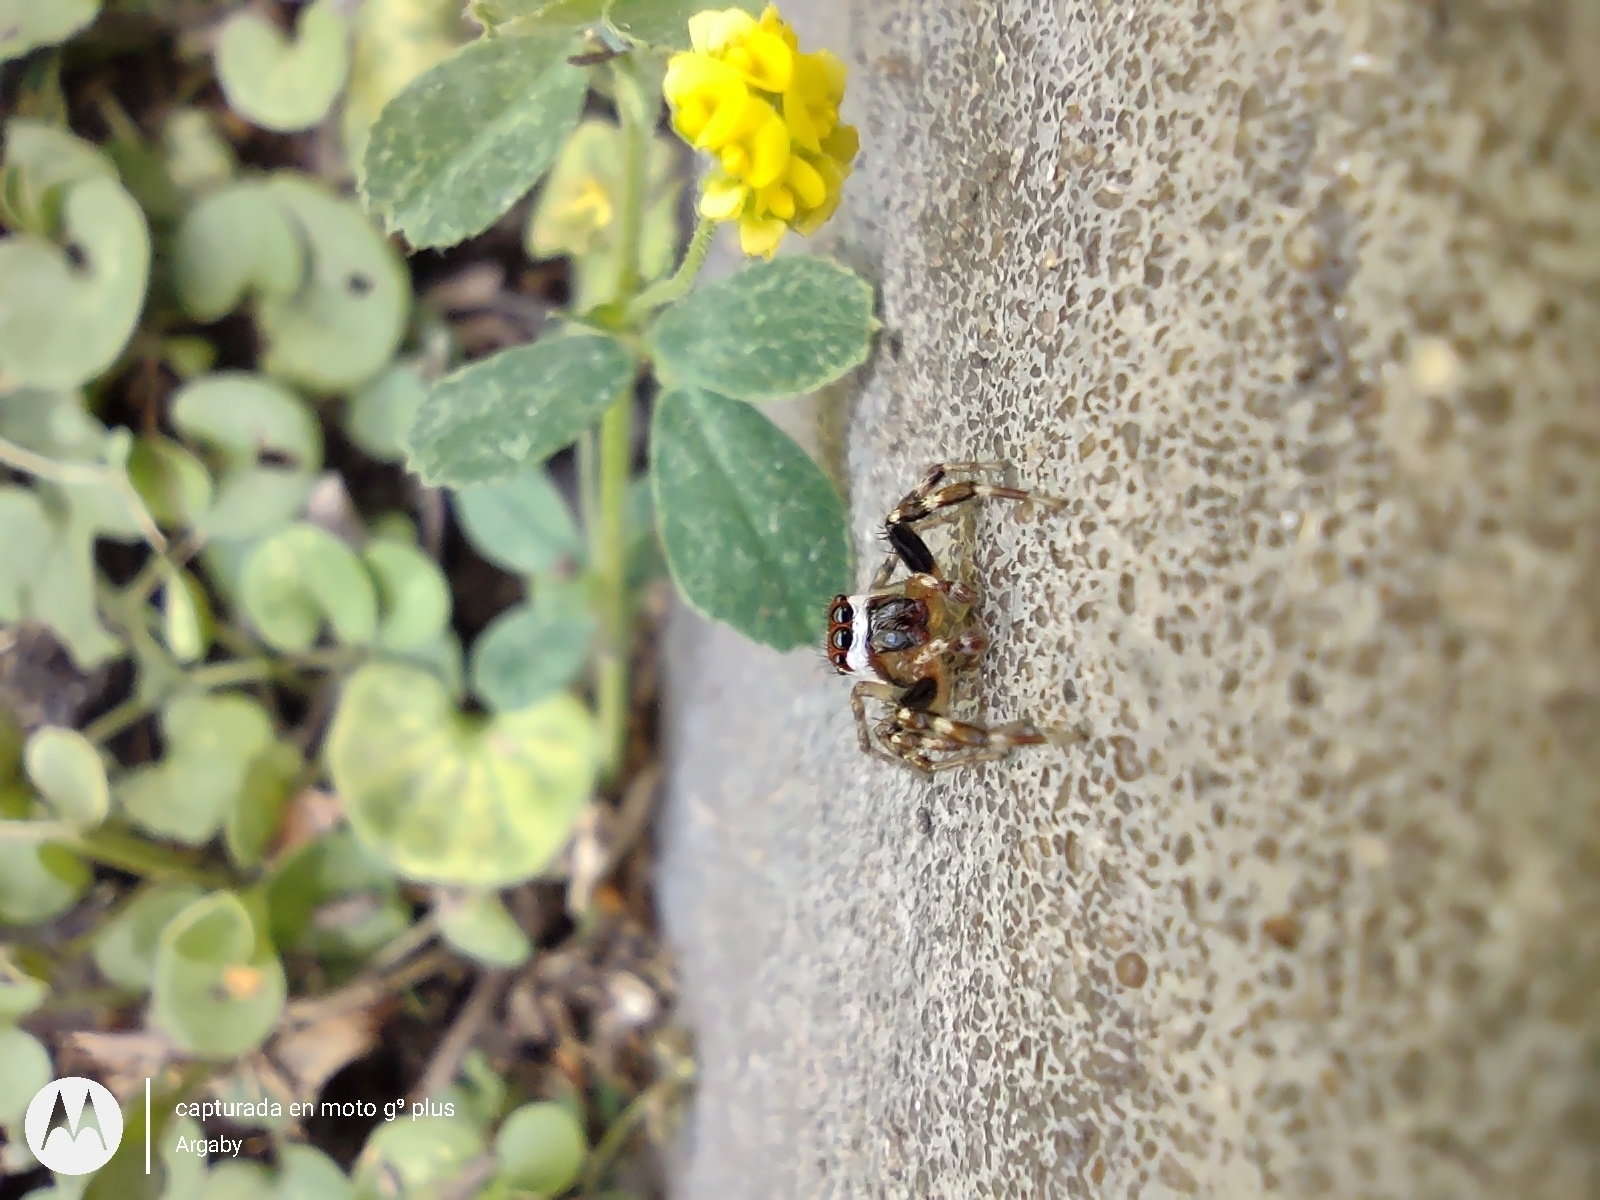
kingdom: Animalia
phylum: Arthropoda
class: Arachnida
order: Araneae
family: Salticidae
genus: Chira
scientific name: Chira gounellei
